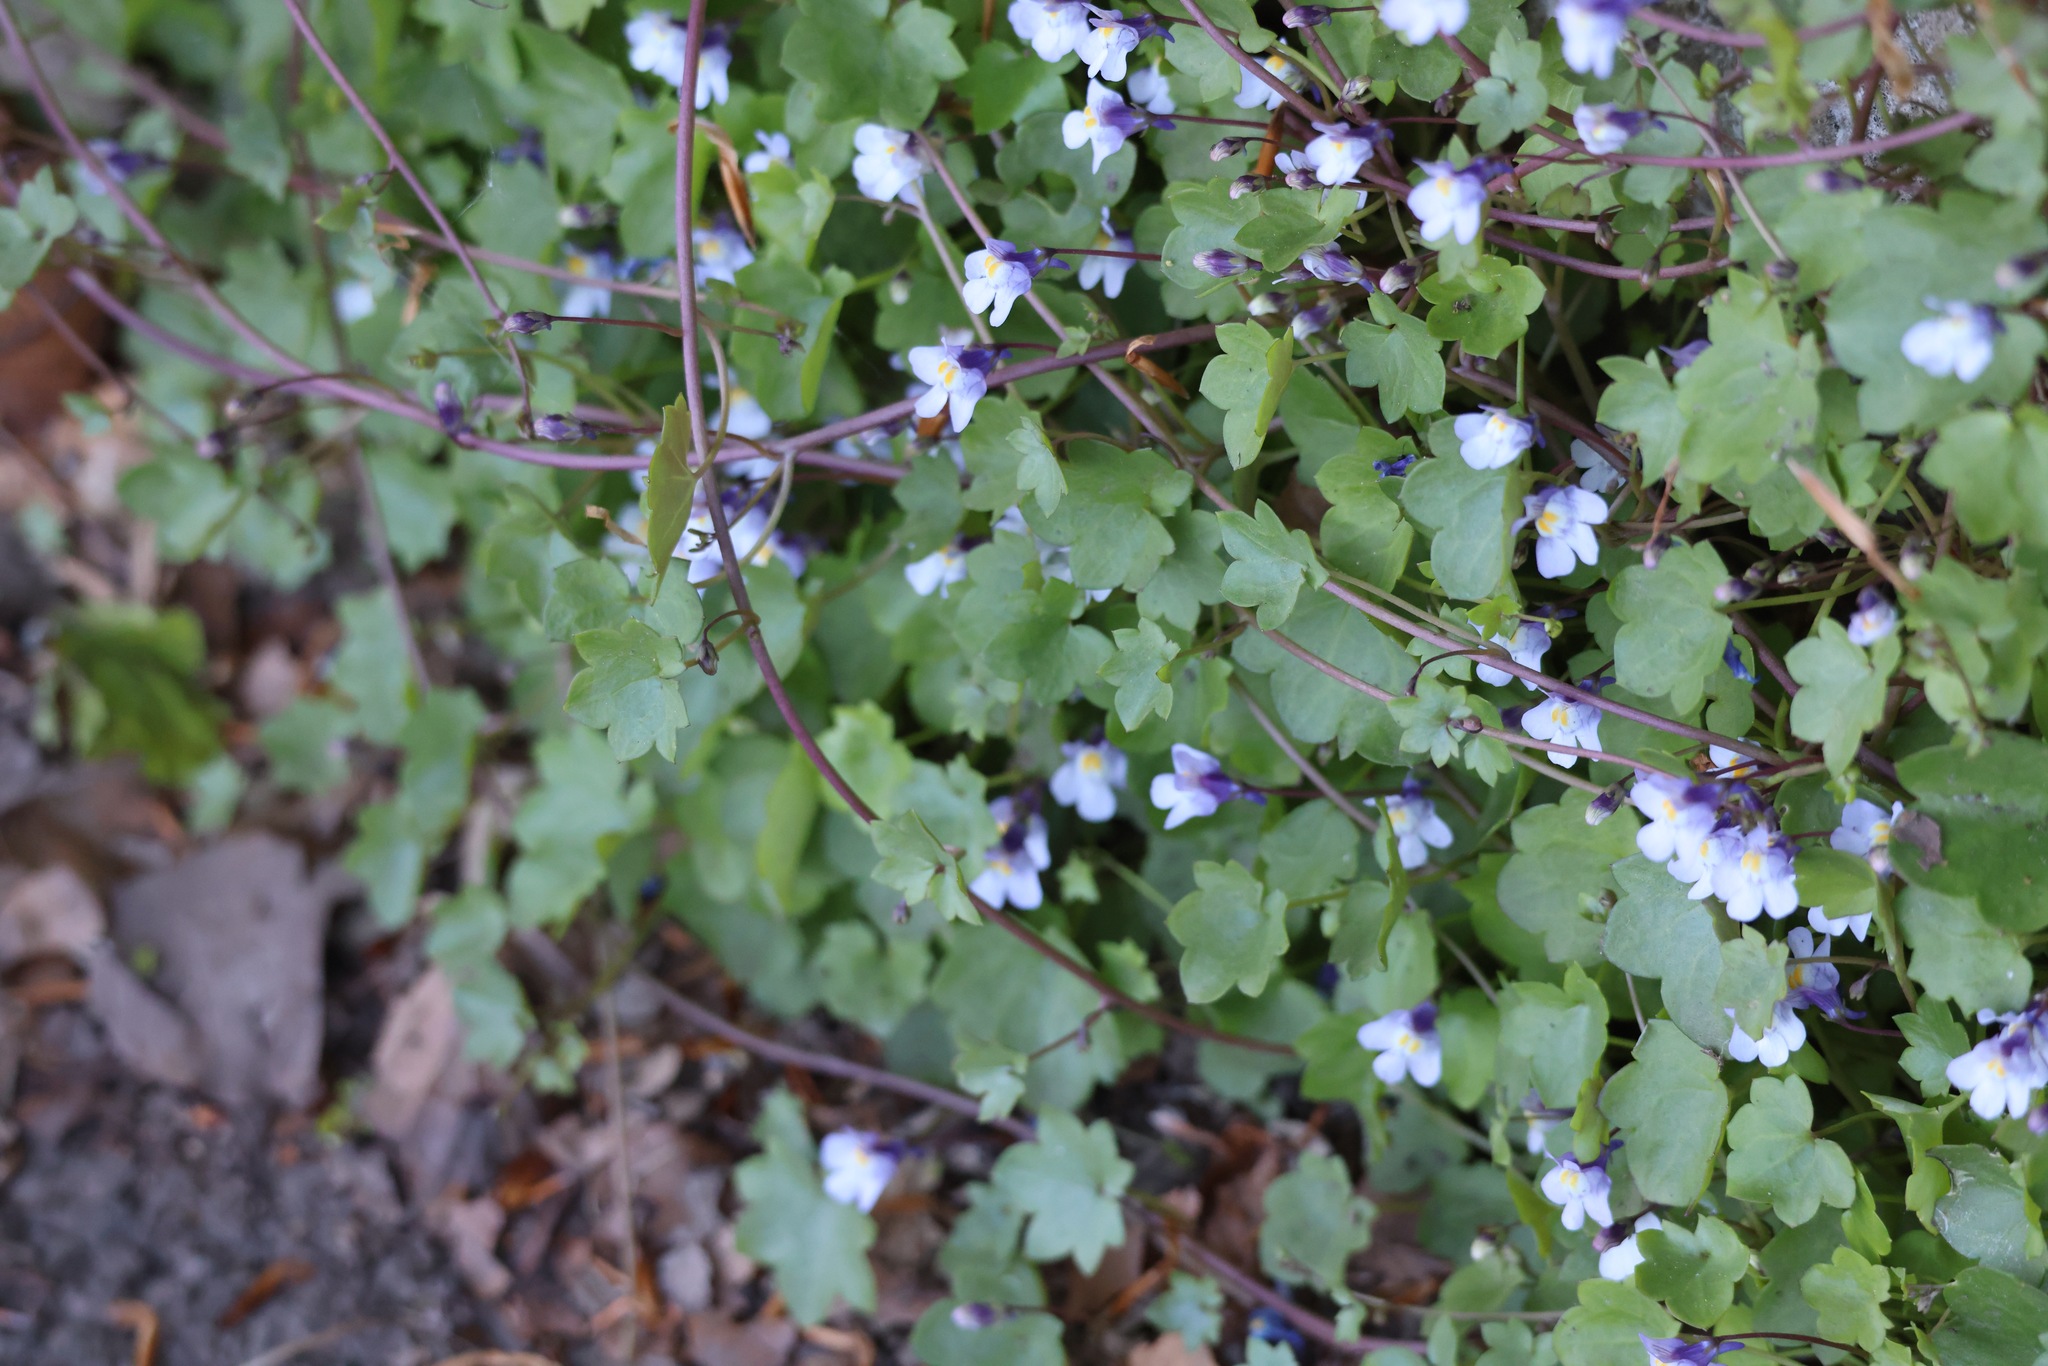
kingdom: Plantae
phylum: Tracheophyta
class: Magnoliopsida
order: Lamiales
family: Plantaginaceae
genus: Cymbalaria
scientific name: Cymbalaria muralis
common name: Ivy-leaved toadflax
